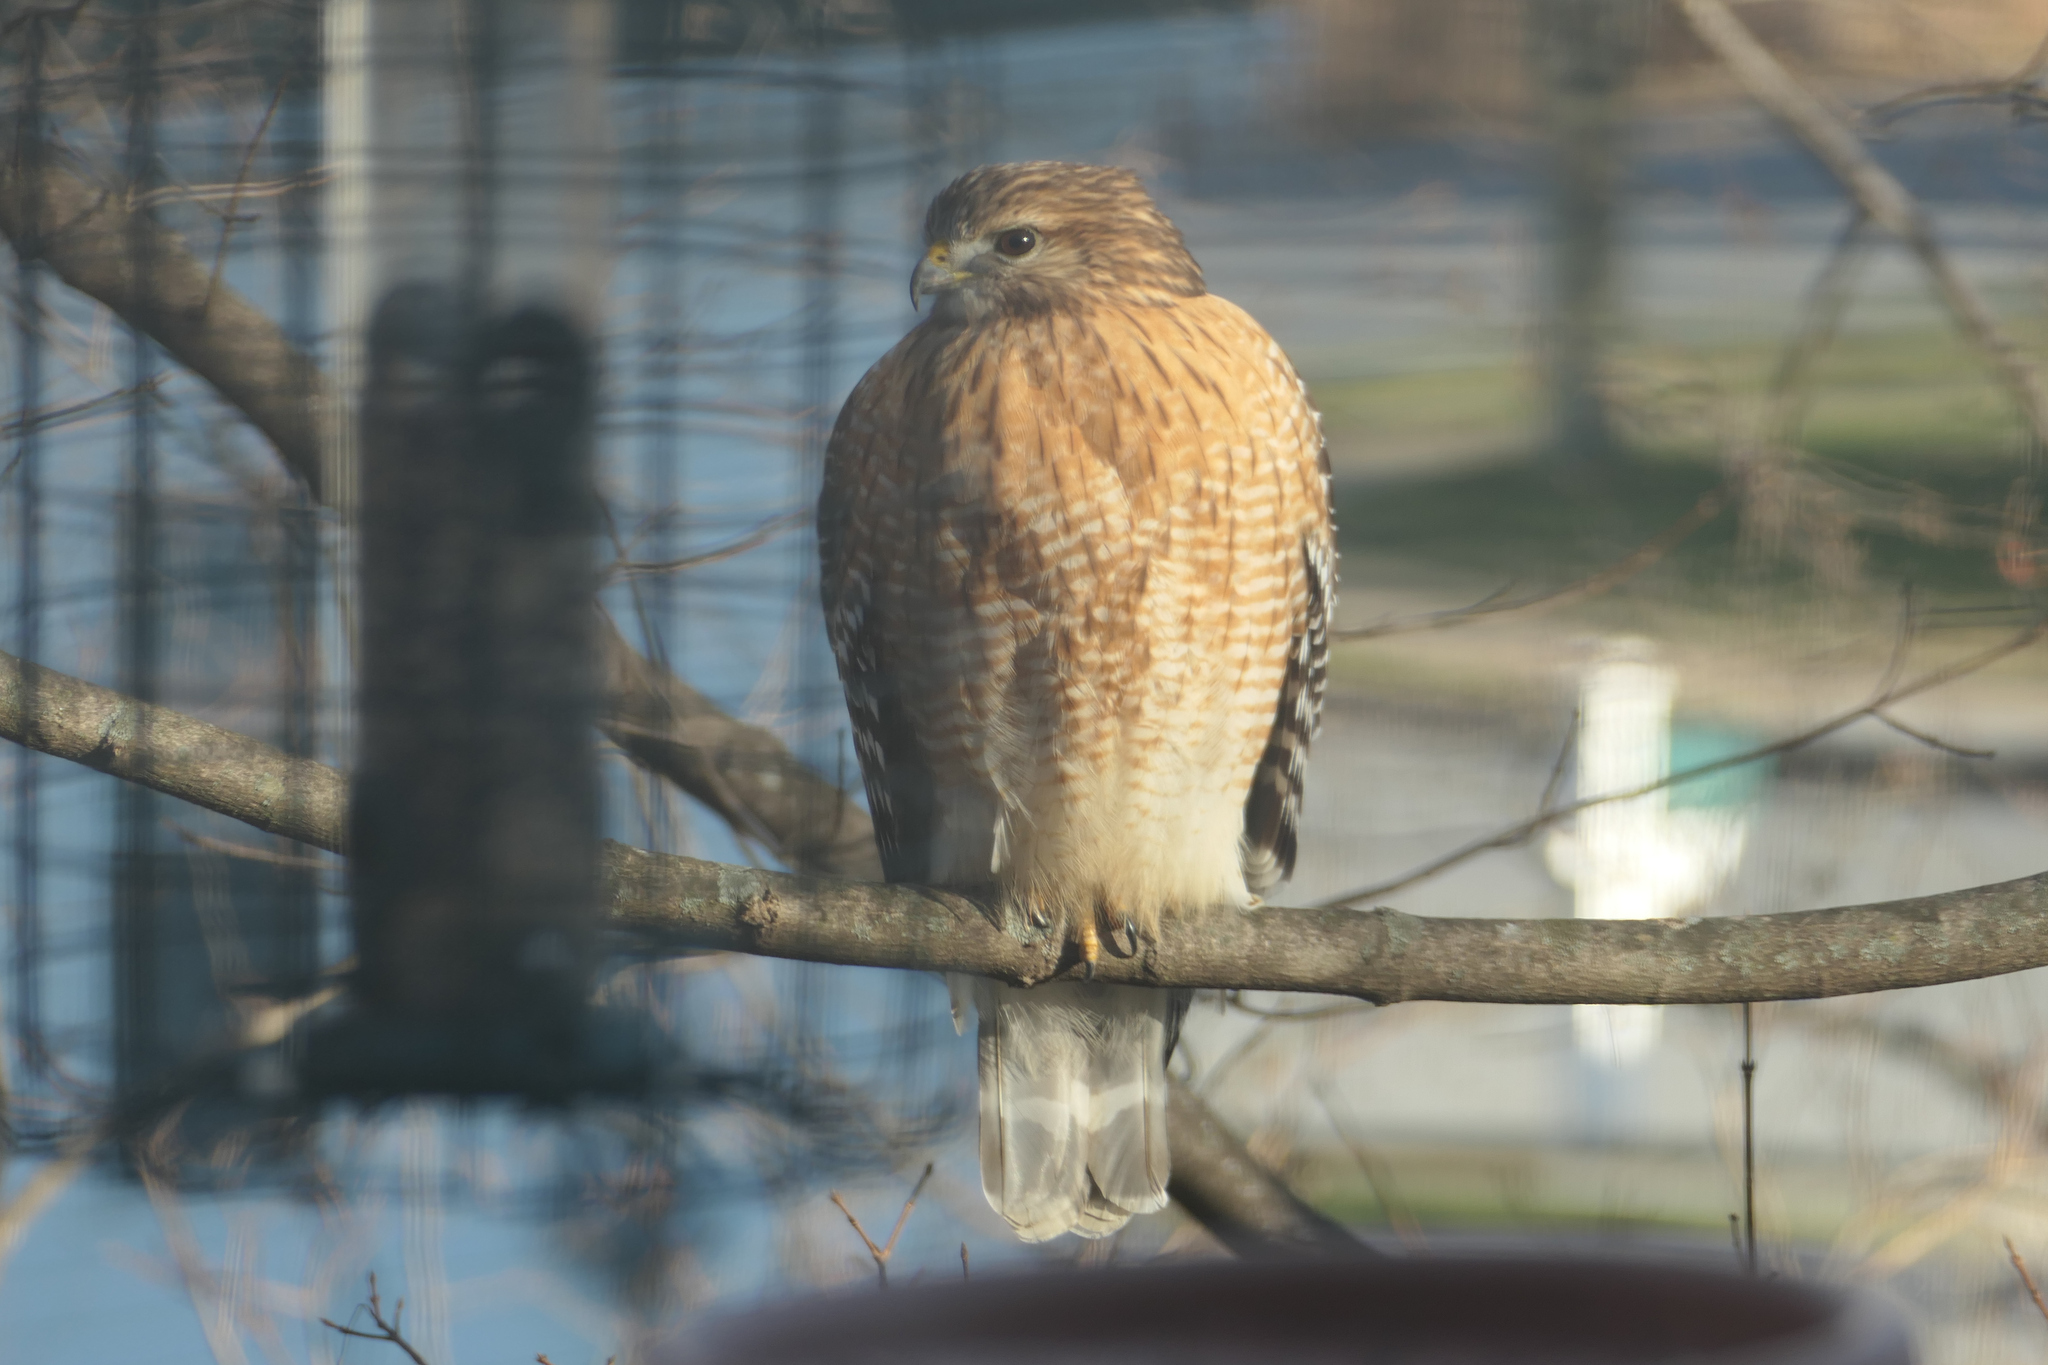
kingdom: Animalia
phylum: Chordata
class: Aves
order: Accipitriformes
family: Accipitridae
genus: Buteo
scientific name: Buteo lineatus
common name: Red-shouldered hawk
